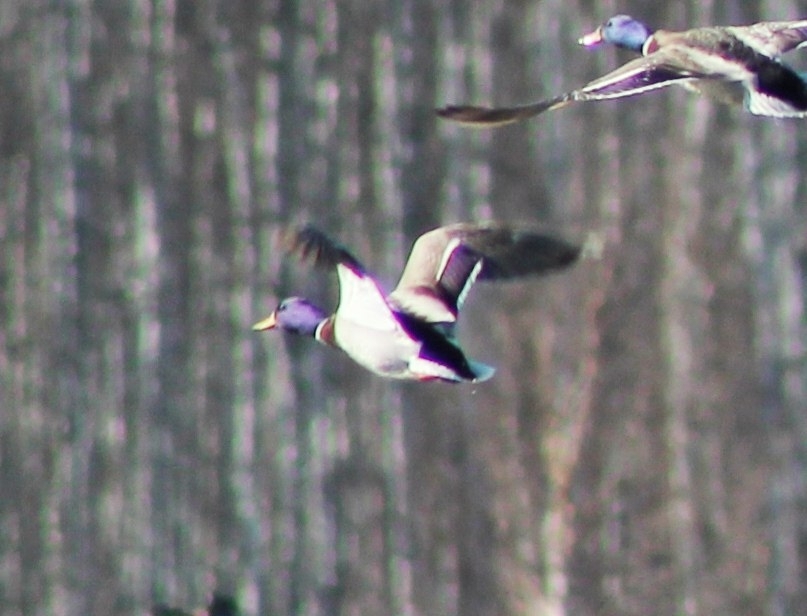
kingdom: Animalia
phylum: Chordata
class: Aves
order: Anseriformes
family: Anatidae
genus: Anas
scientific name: Anas platyrhynchos
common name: Mallard
